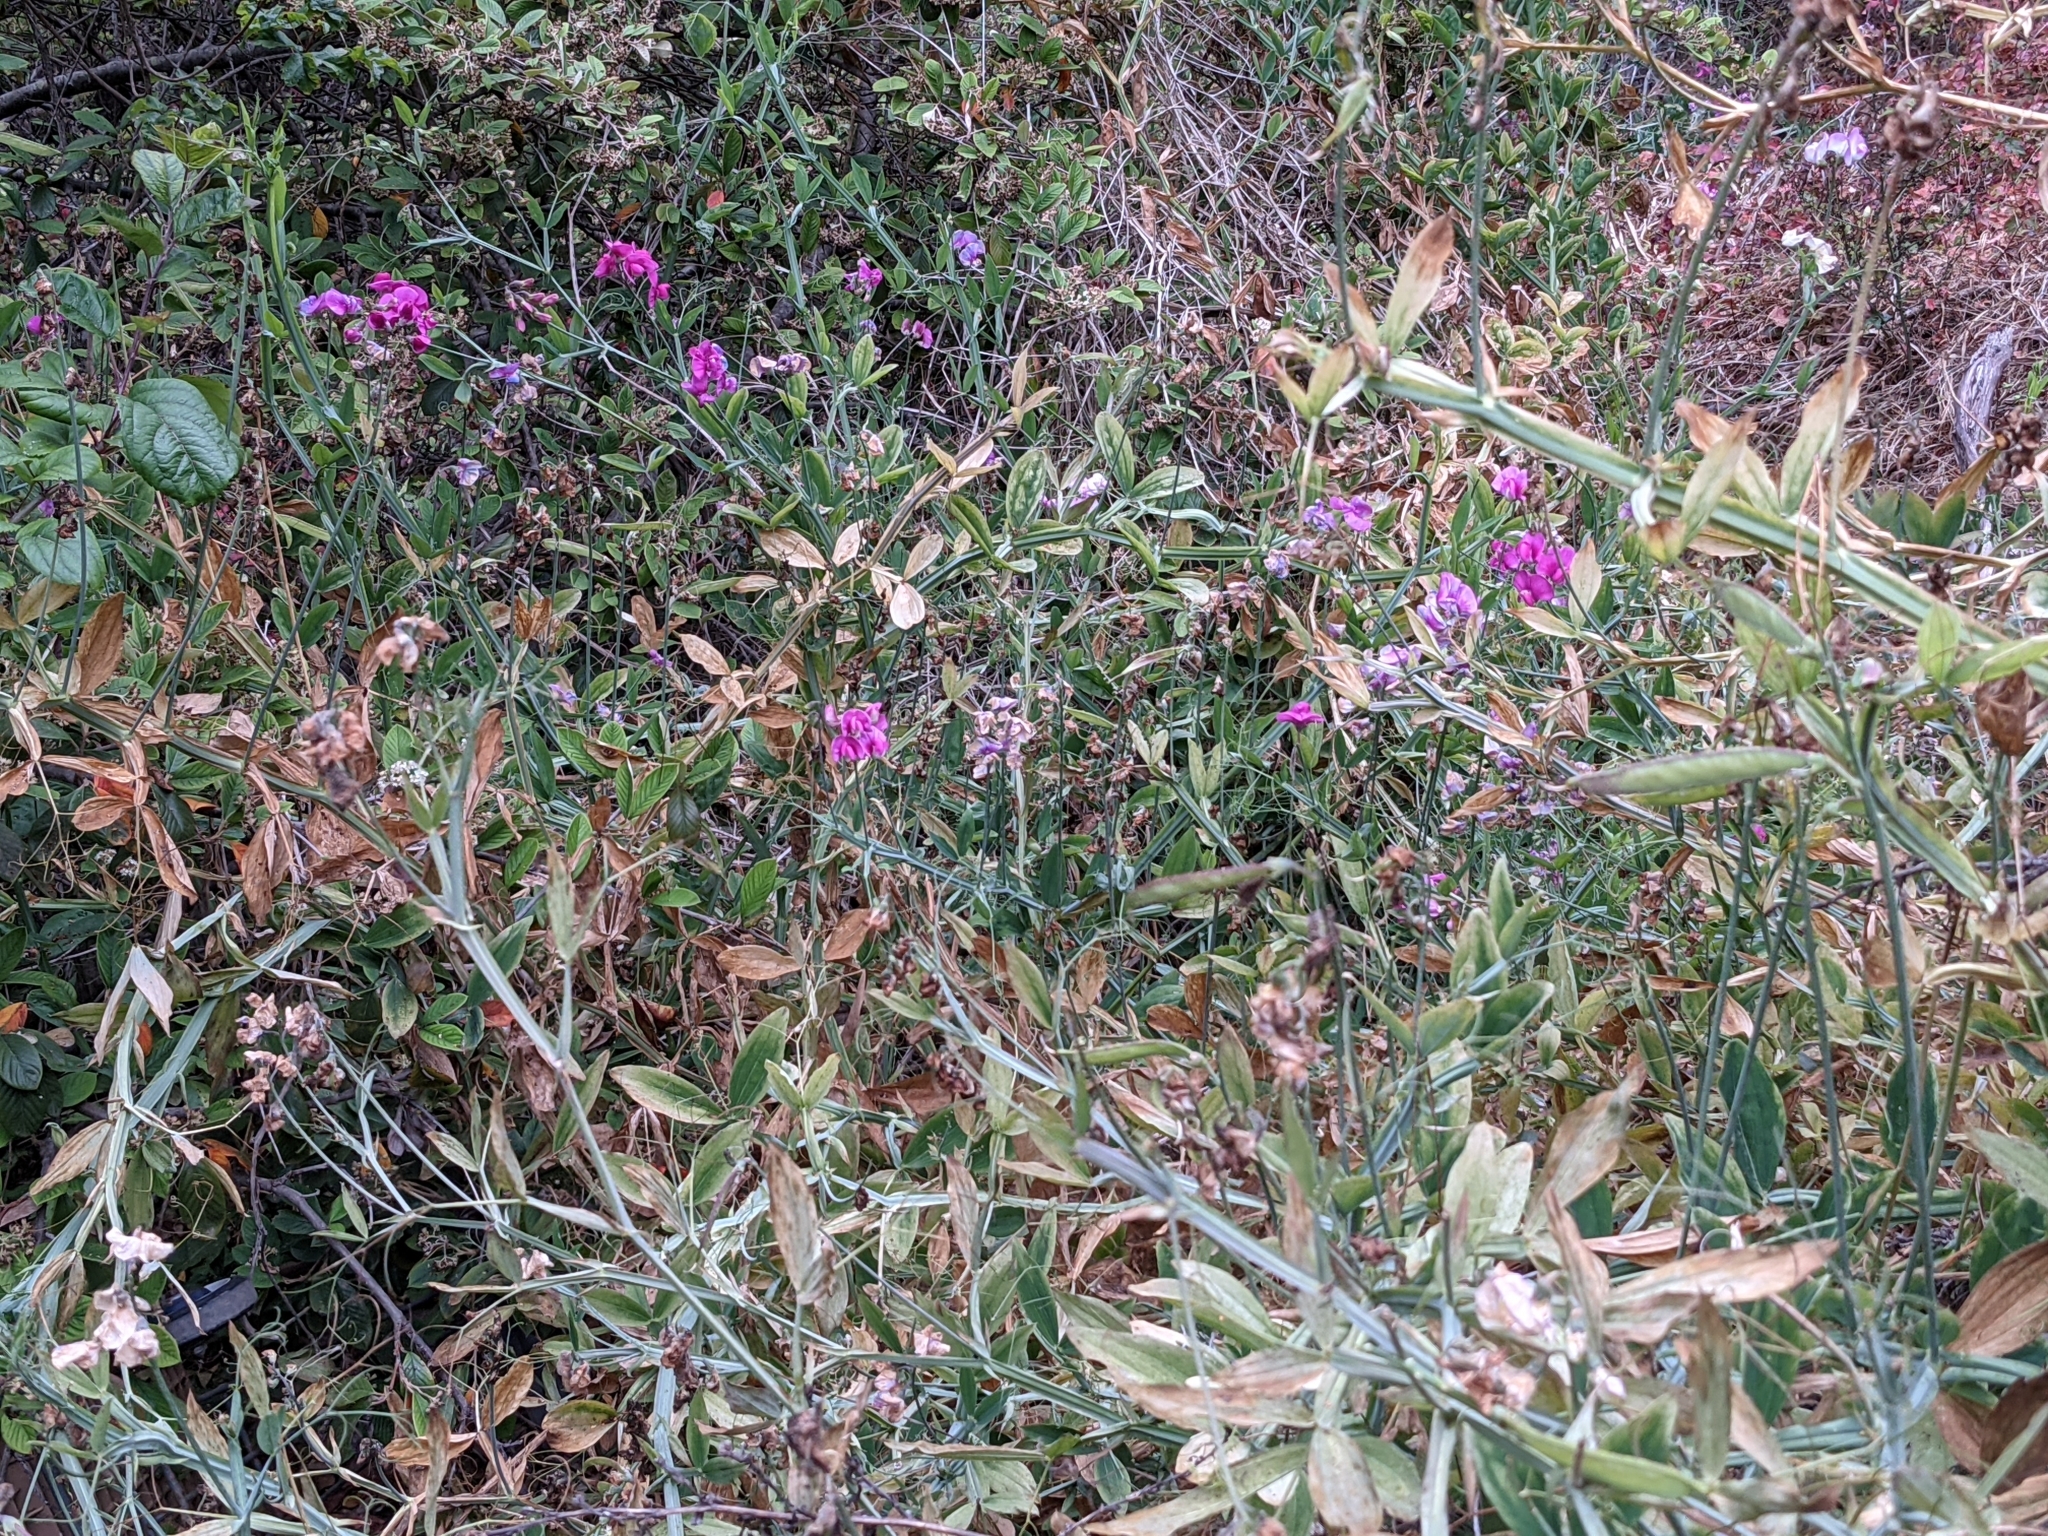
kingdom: Plantae
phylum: Tracheophyta
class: Magnoliopsida
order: Fabales
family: Fabaceae
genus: Lathyrus
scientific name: Lathyrus latifolius
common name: Perennial pea
